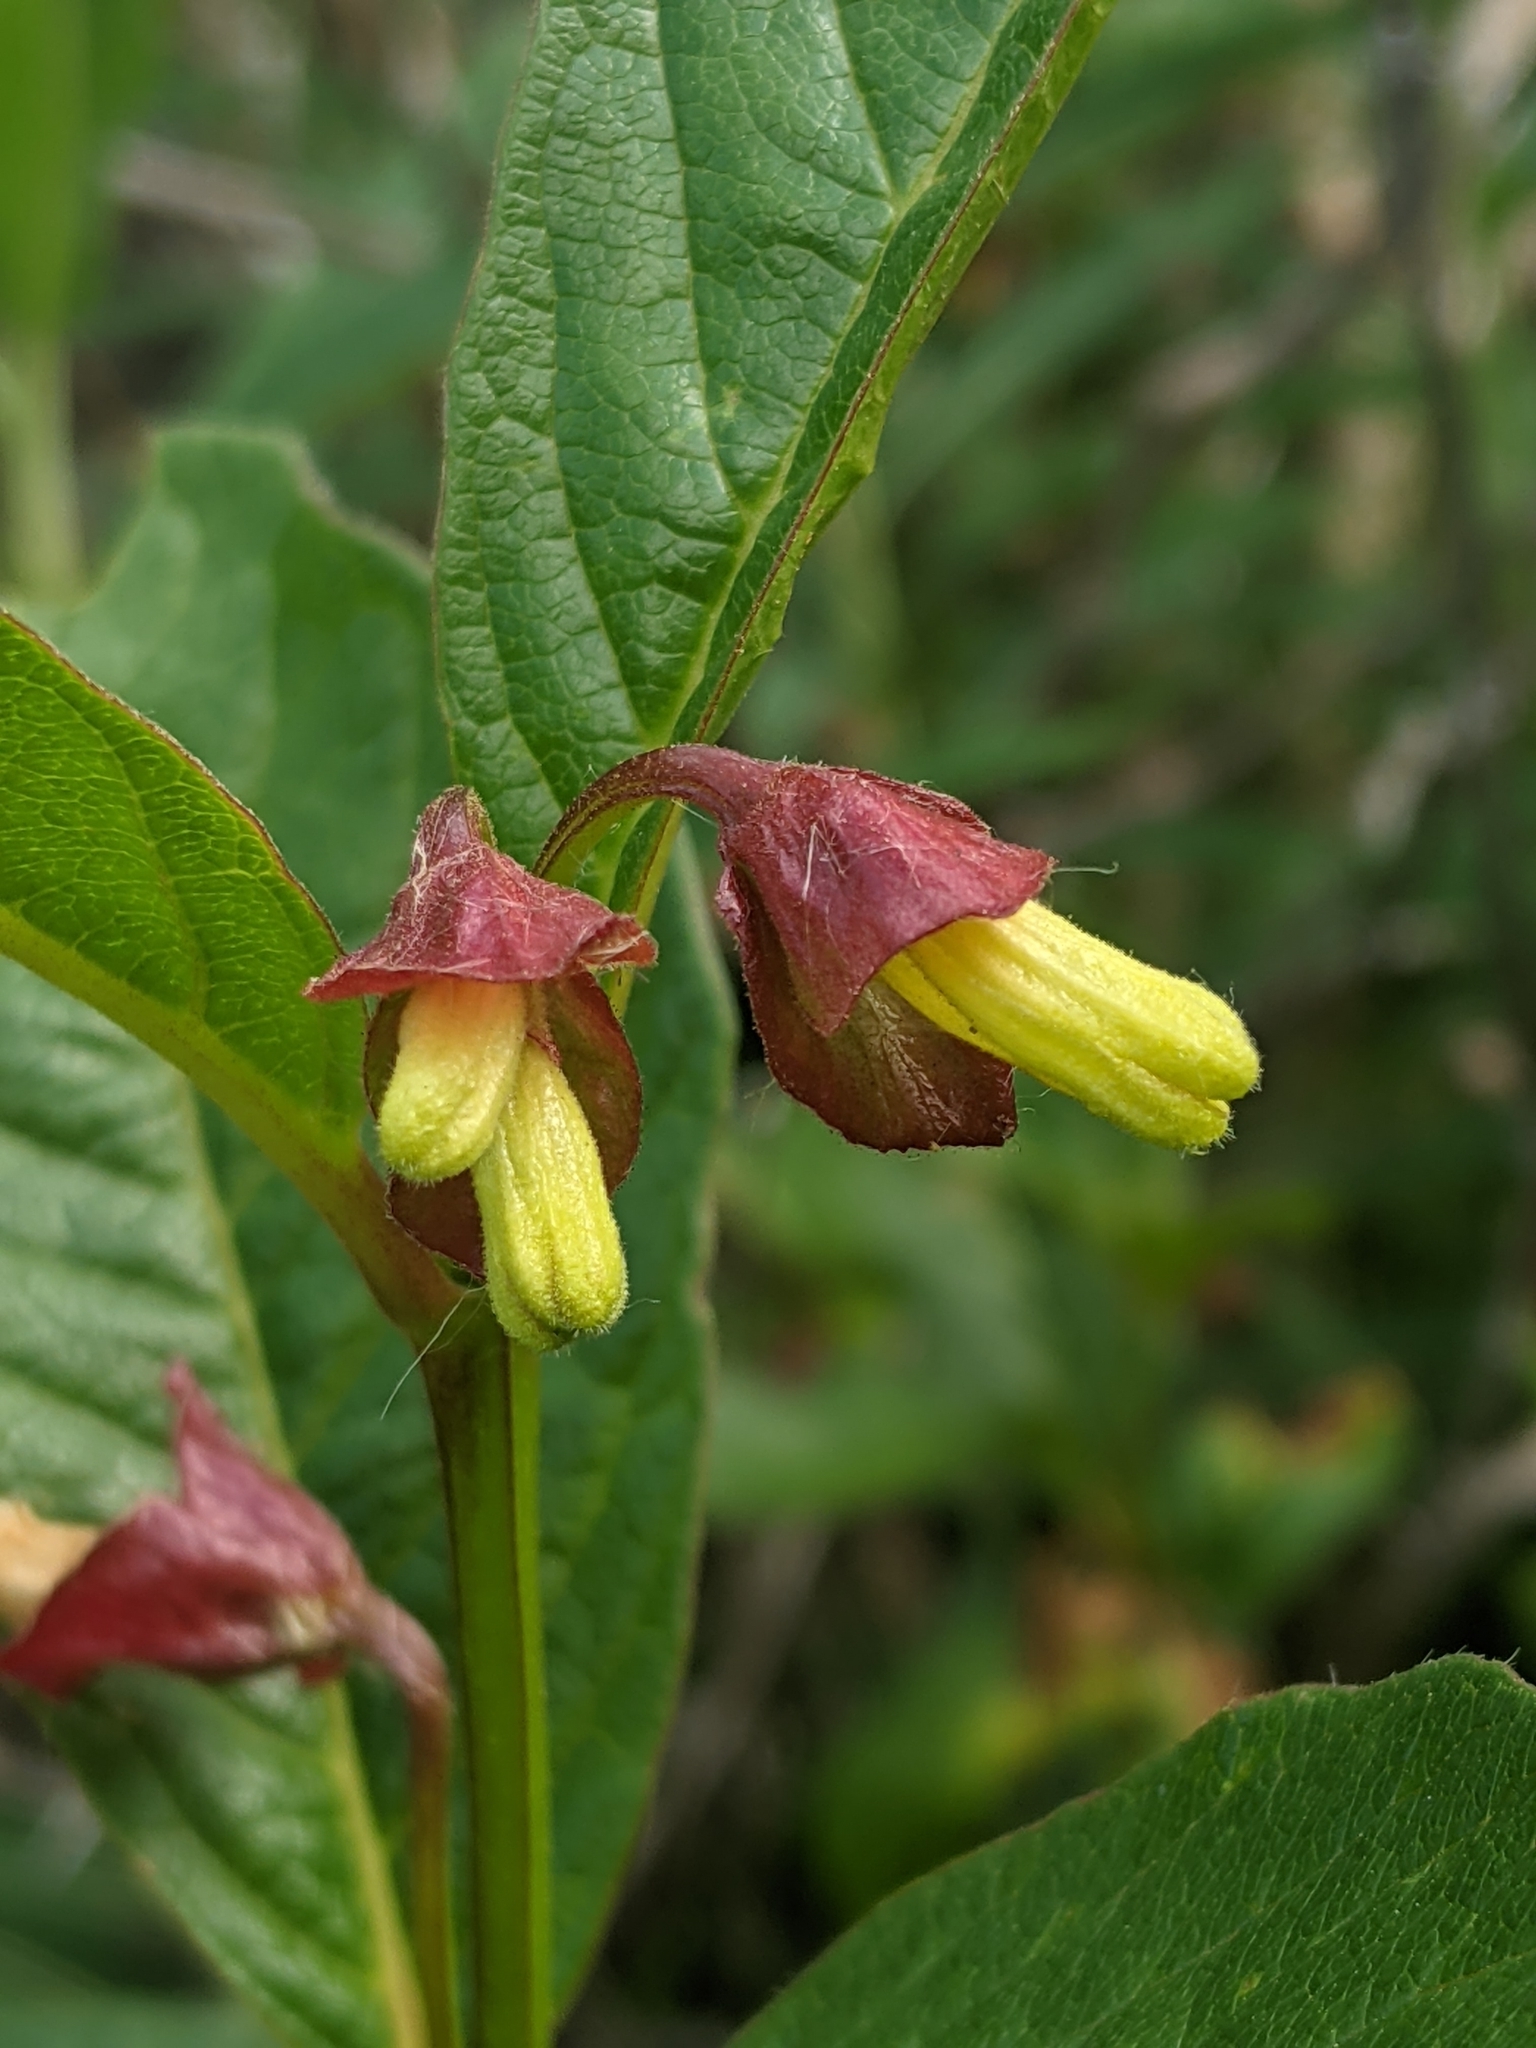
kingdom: Plantae
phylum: Tracheophyta
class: Magnoliopsida
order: Dipsacales
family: Caprifoliaceae
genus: Lonicera
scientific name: Lonicera involucrata
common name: Californian honeysuckle
